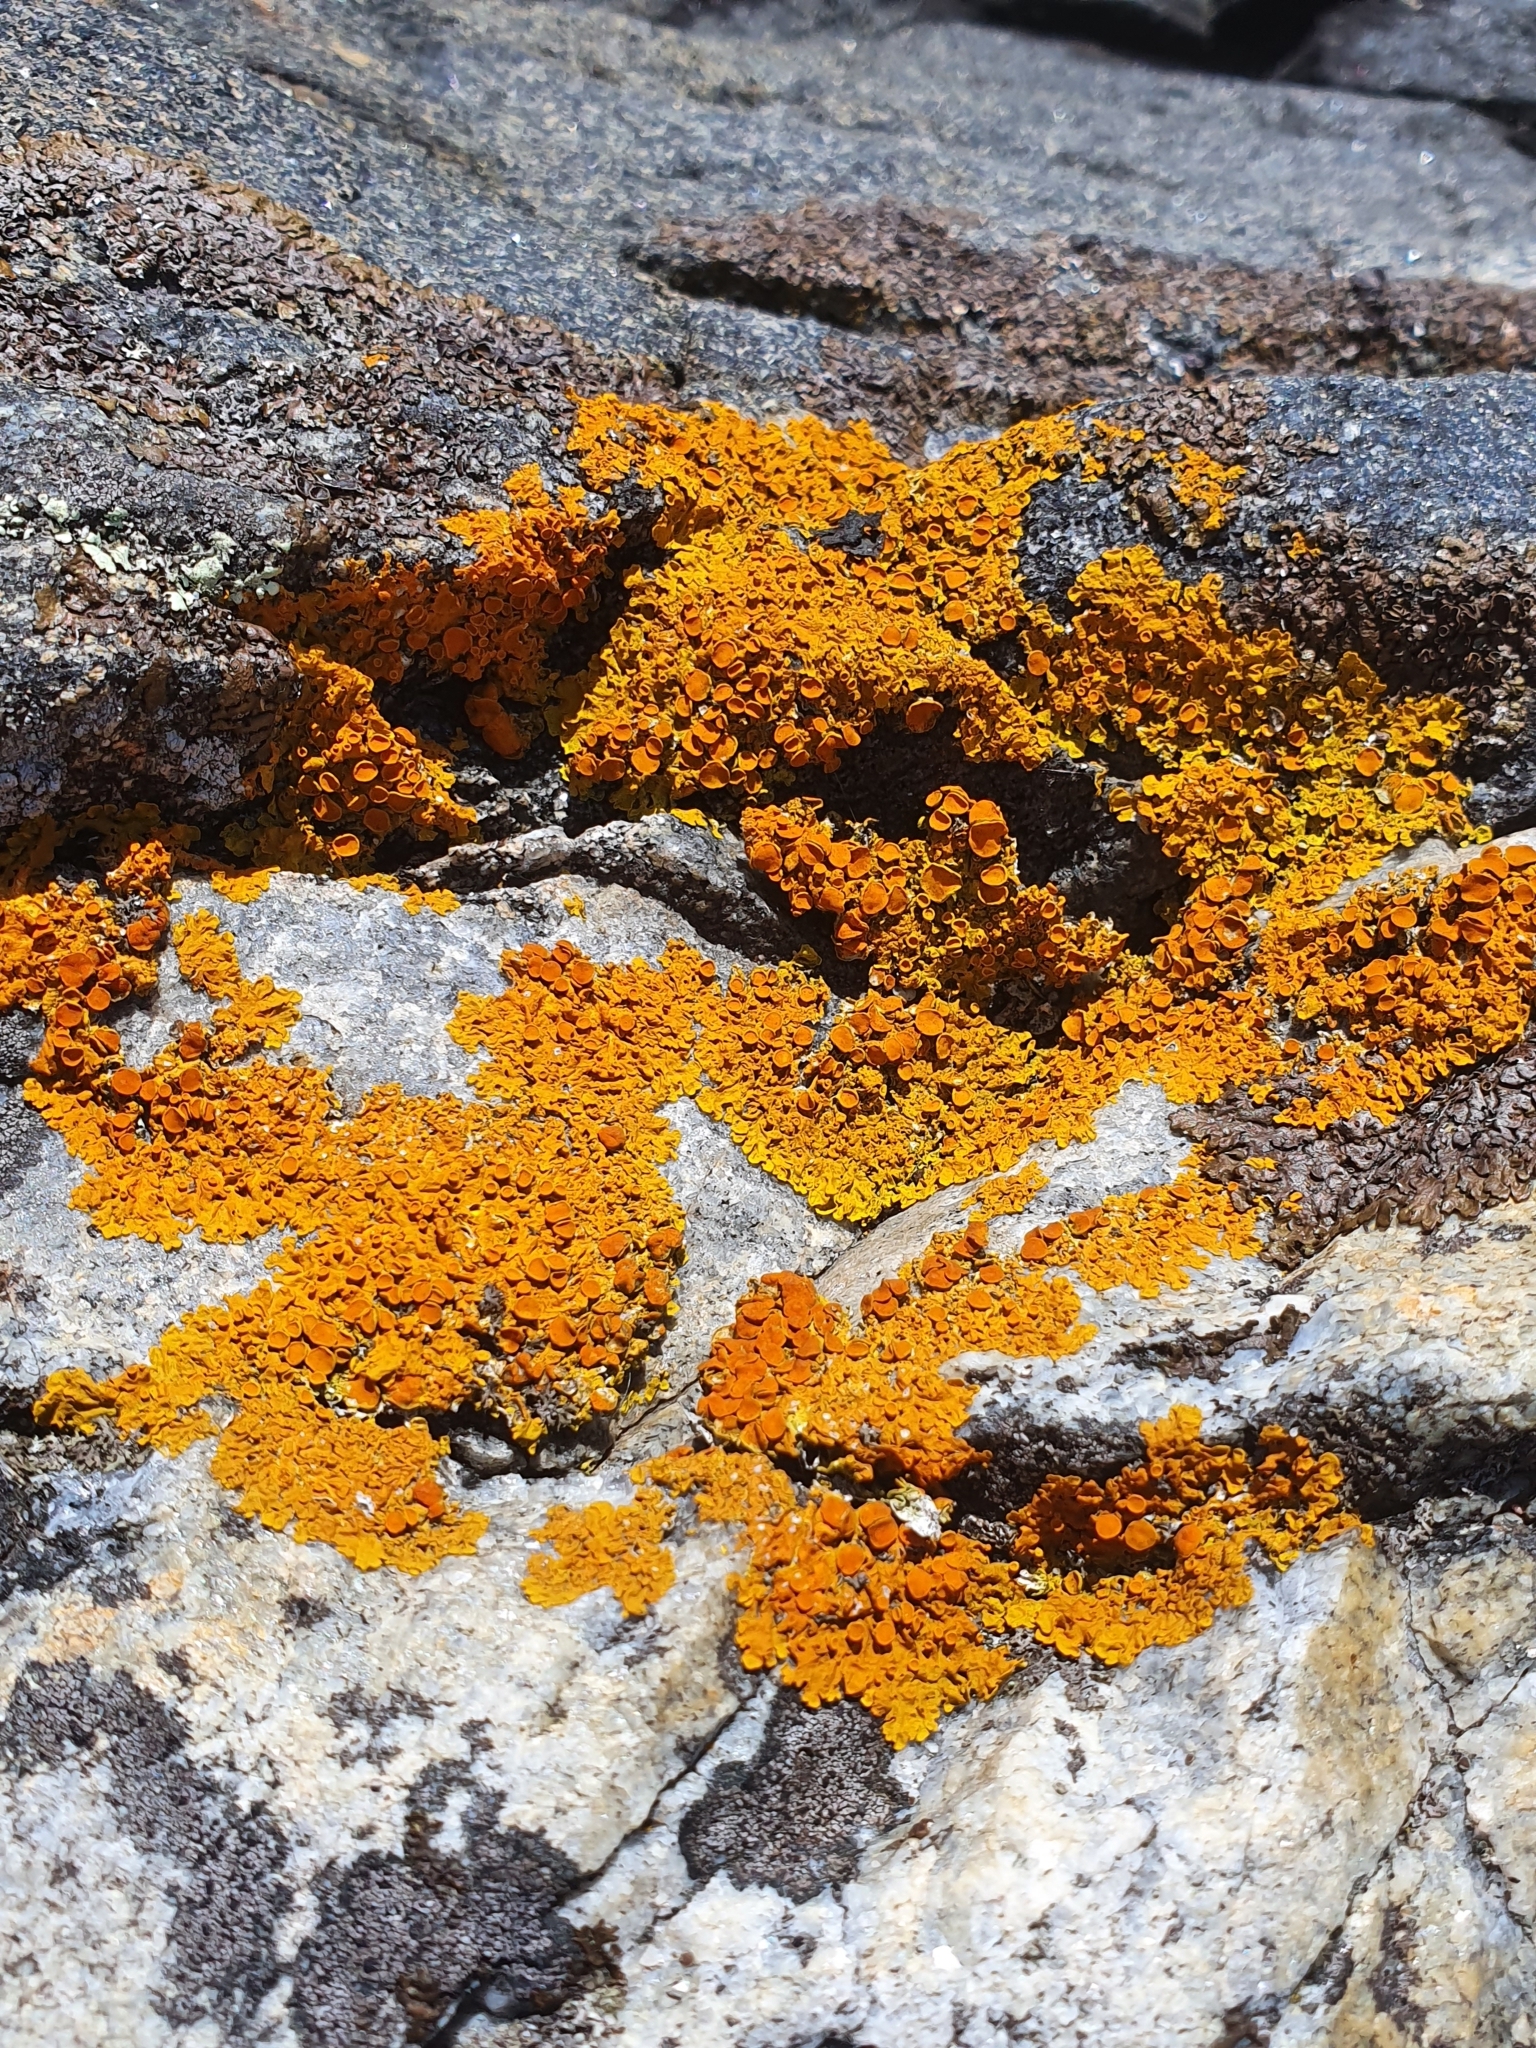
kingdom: Fungi
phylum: Ascomycota
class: Lecanoromycetes
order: Teloschistales
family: Teloschistaceae
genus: Xanthoria
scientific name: Xanthoria parietina
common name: Common orange lichen
